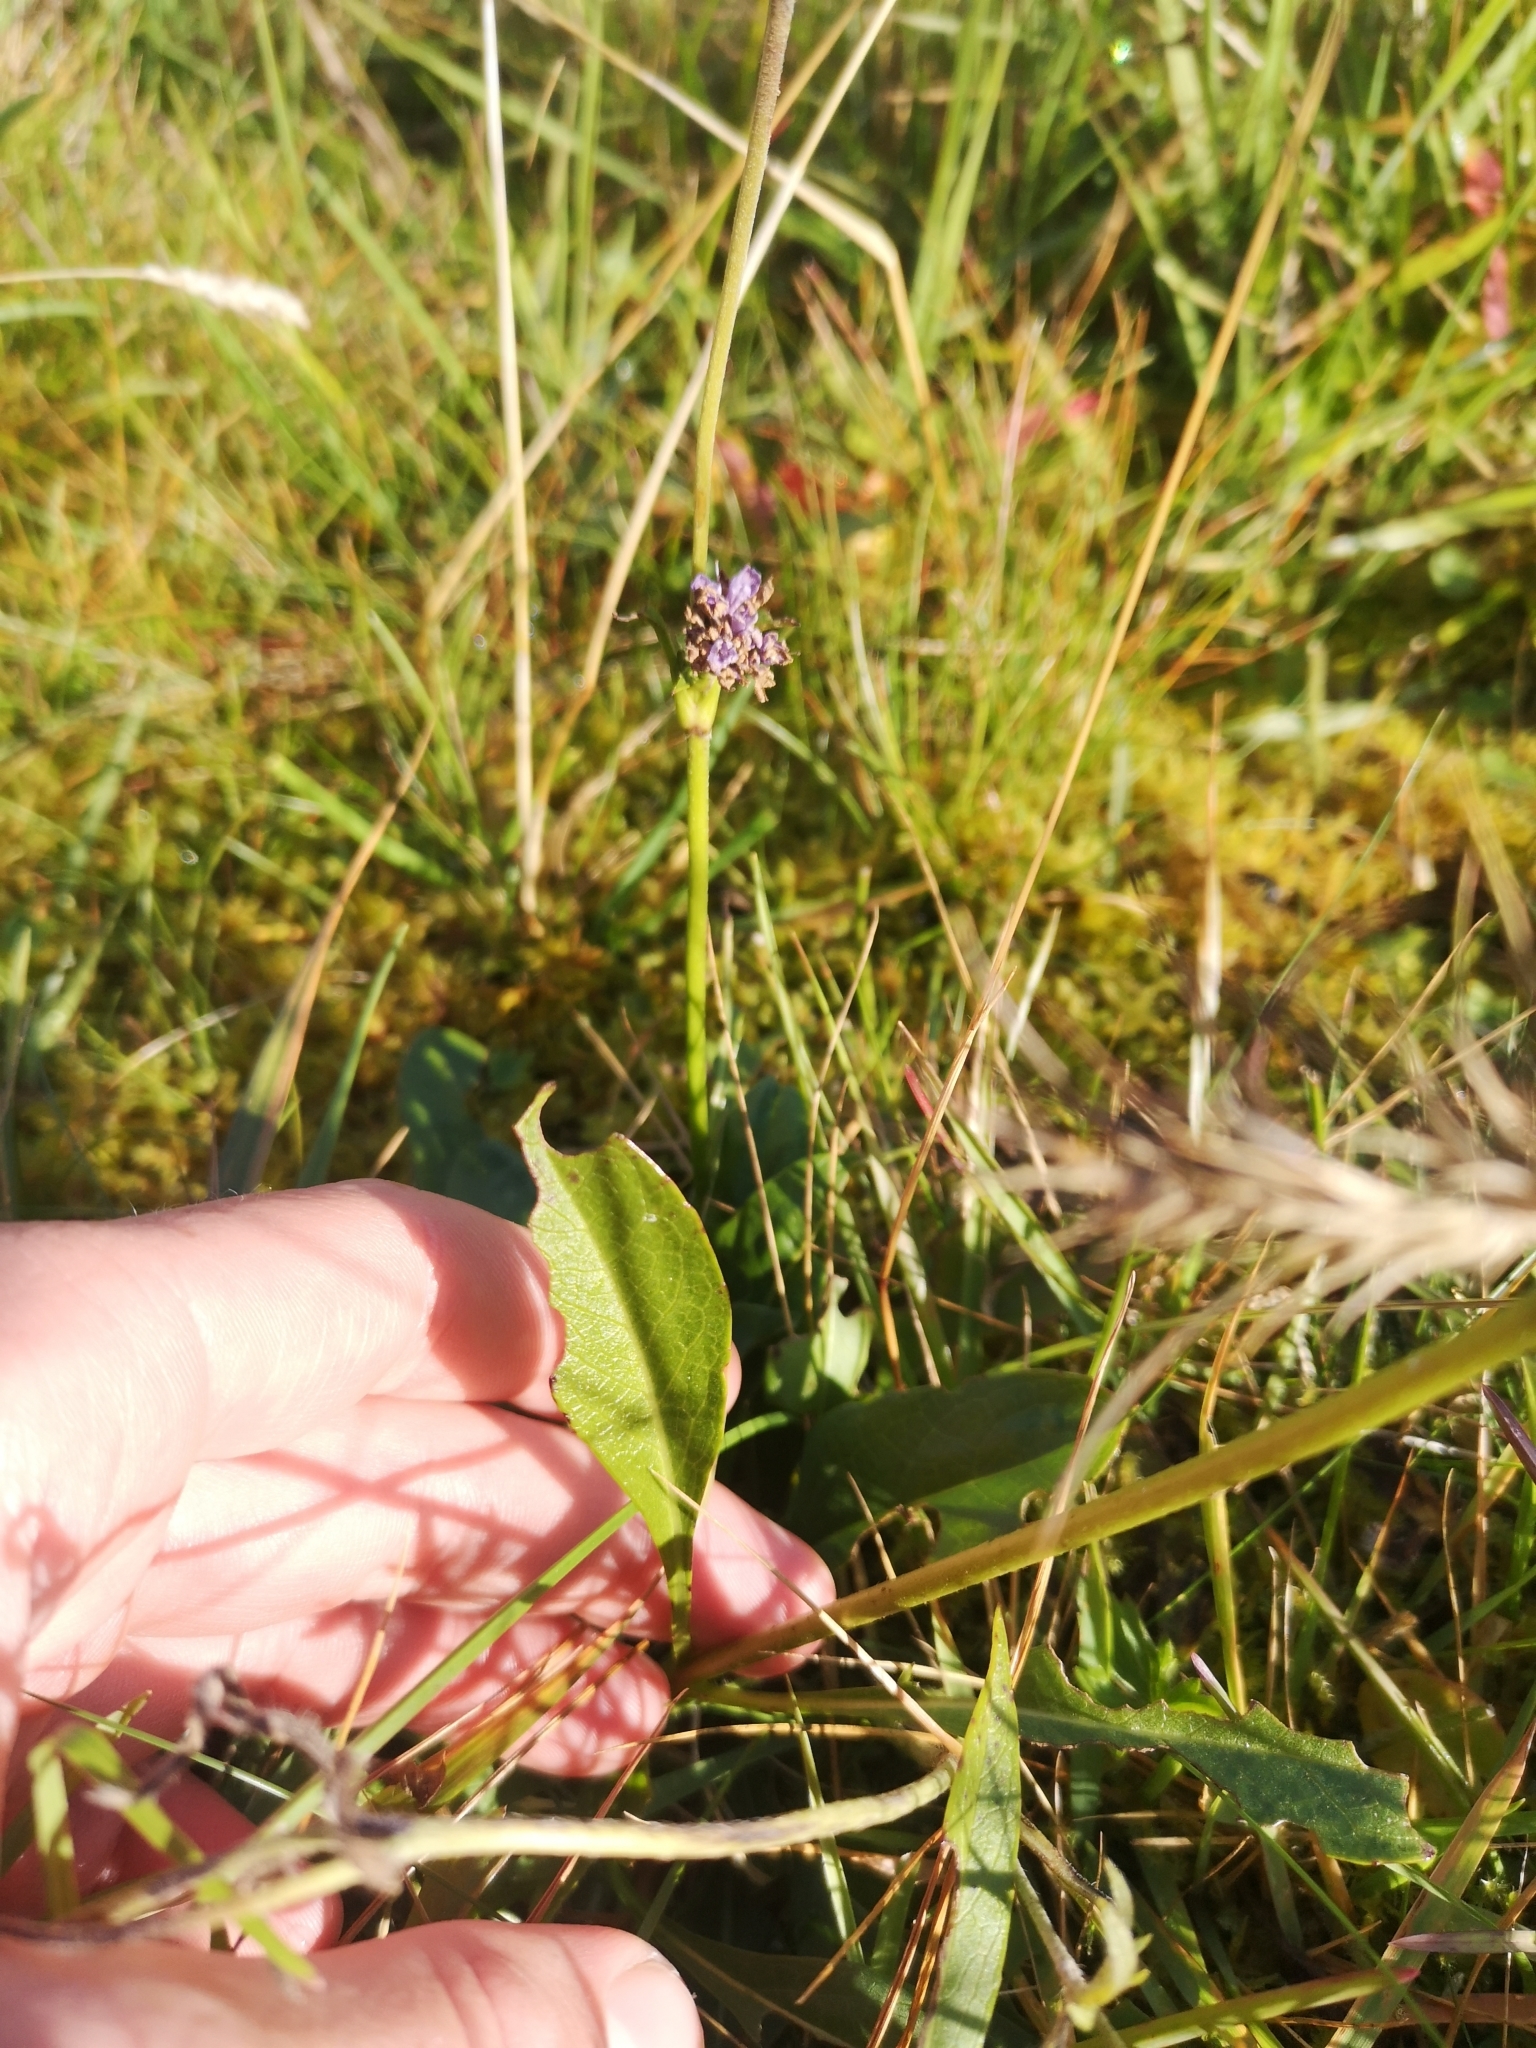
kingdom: Plantae
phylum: Tracheophyta
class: Magnoliopsida
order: Dipsacales
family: Caprifoliaceae
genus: Succisa
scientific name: Succisa pratensis
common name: Devil's-bit
